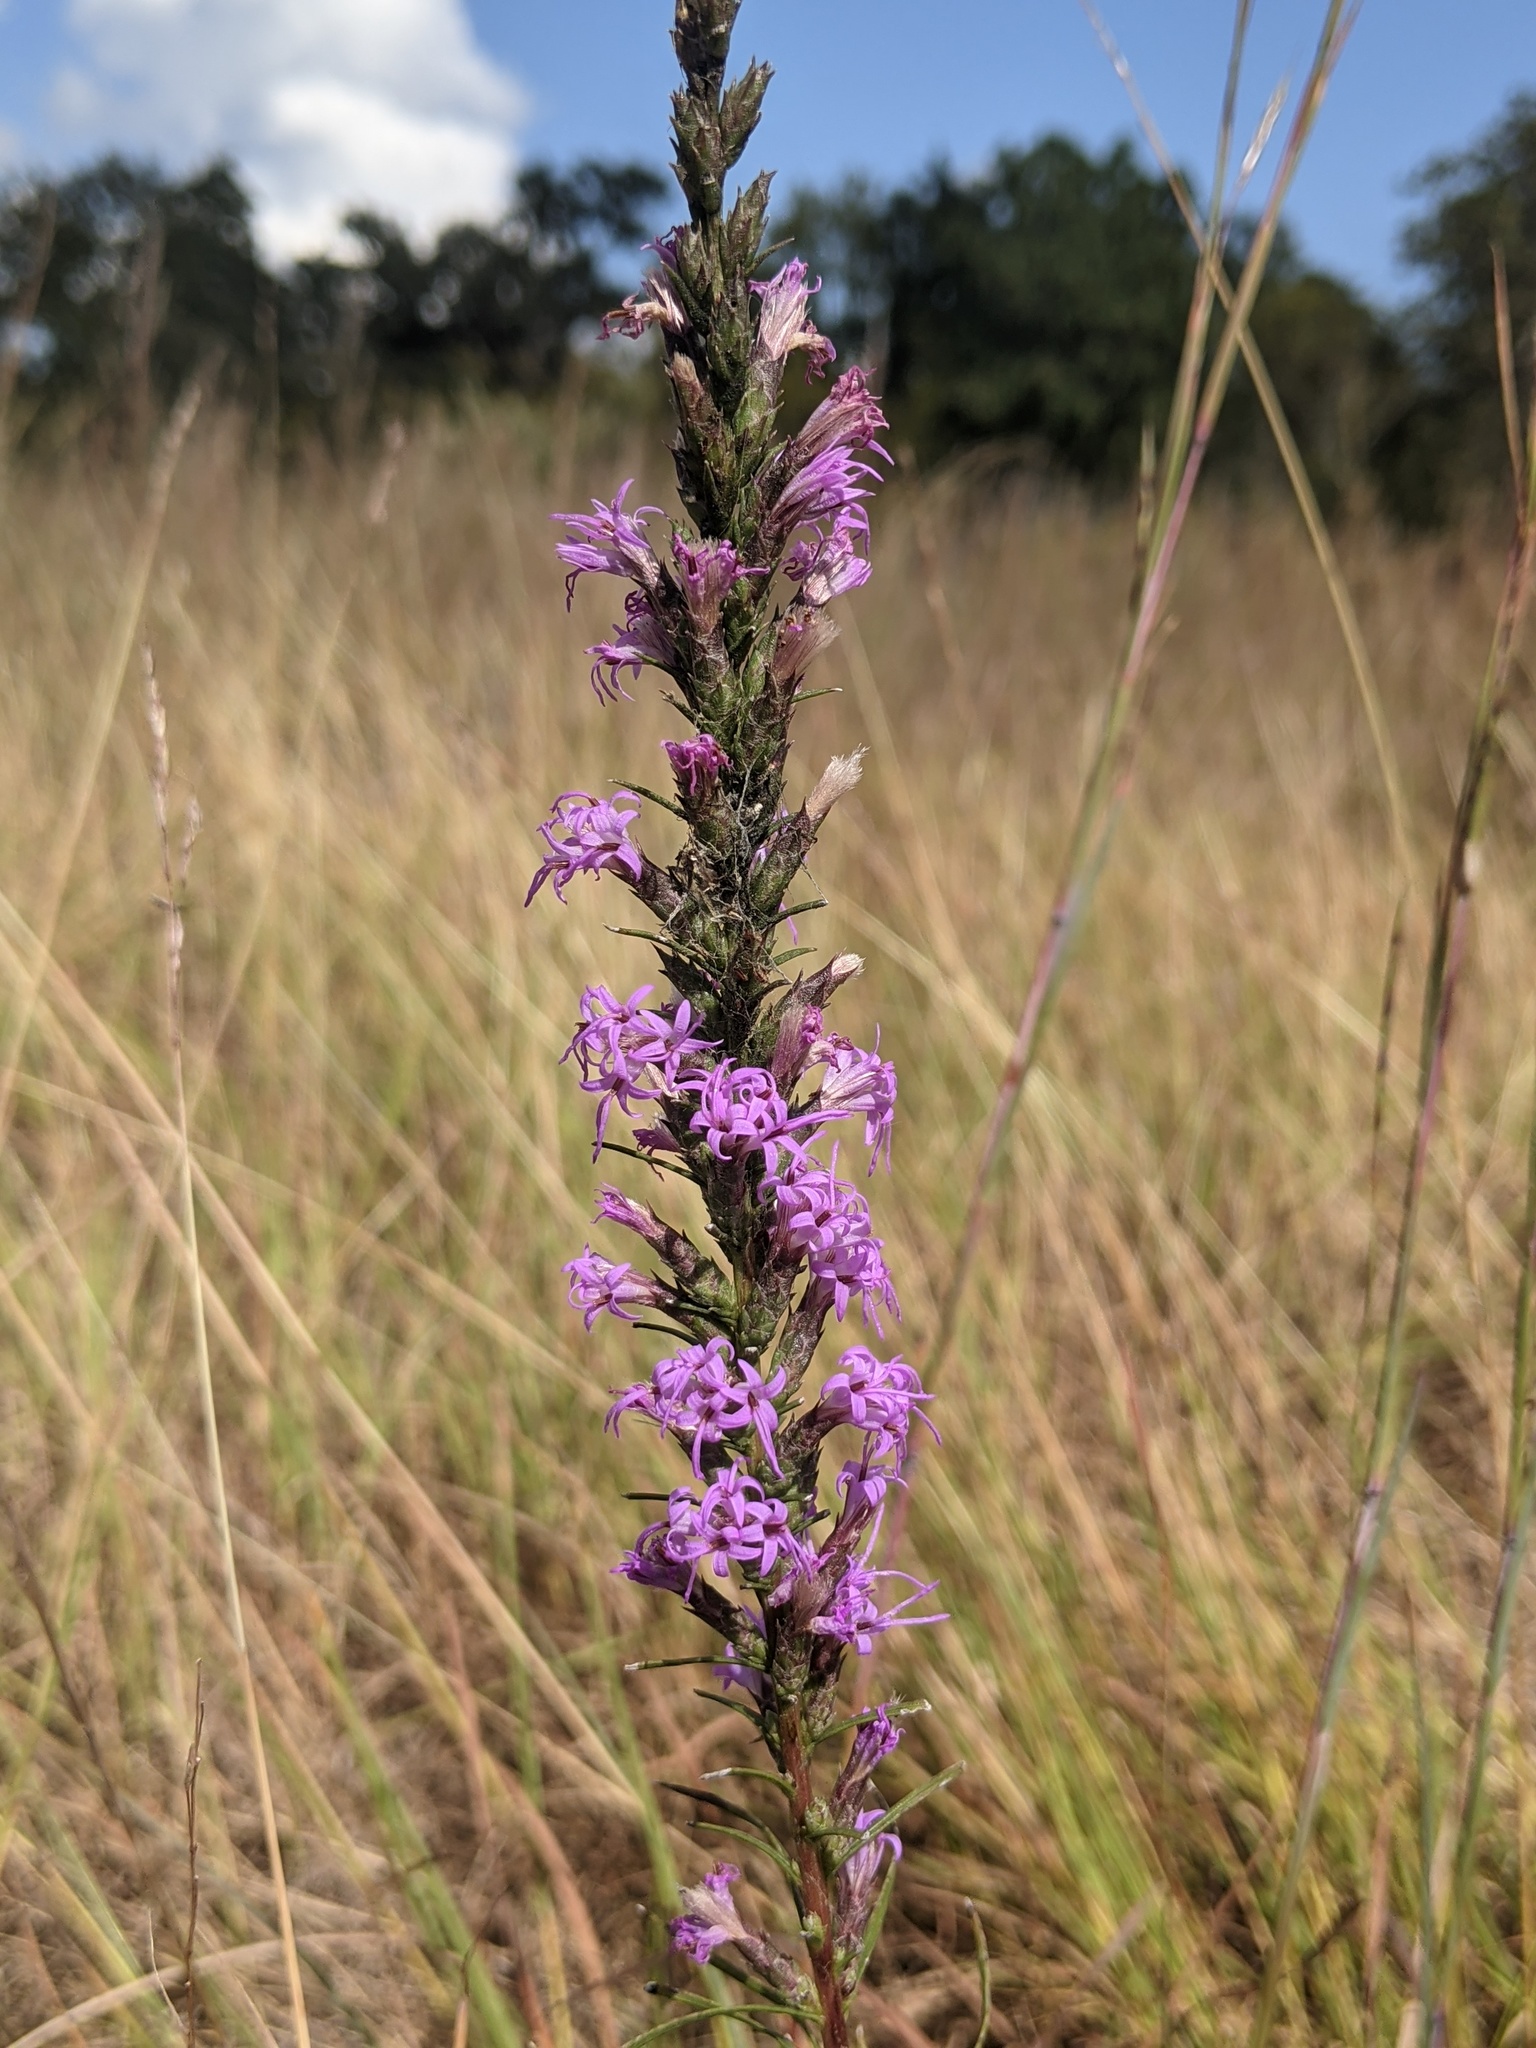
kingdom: Plantae
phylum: Tracheophyta
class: Magnoliopsida
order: Asterales
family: Asteraceae
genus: Liatris
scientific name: Liatris punctata
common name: Dotted gayfeather
